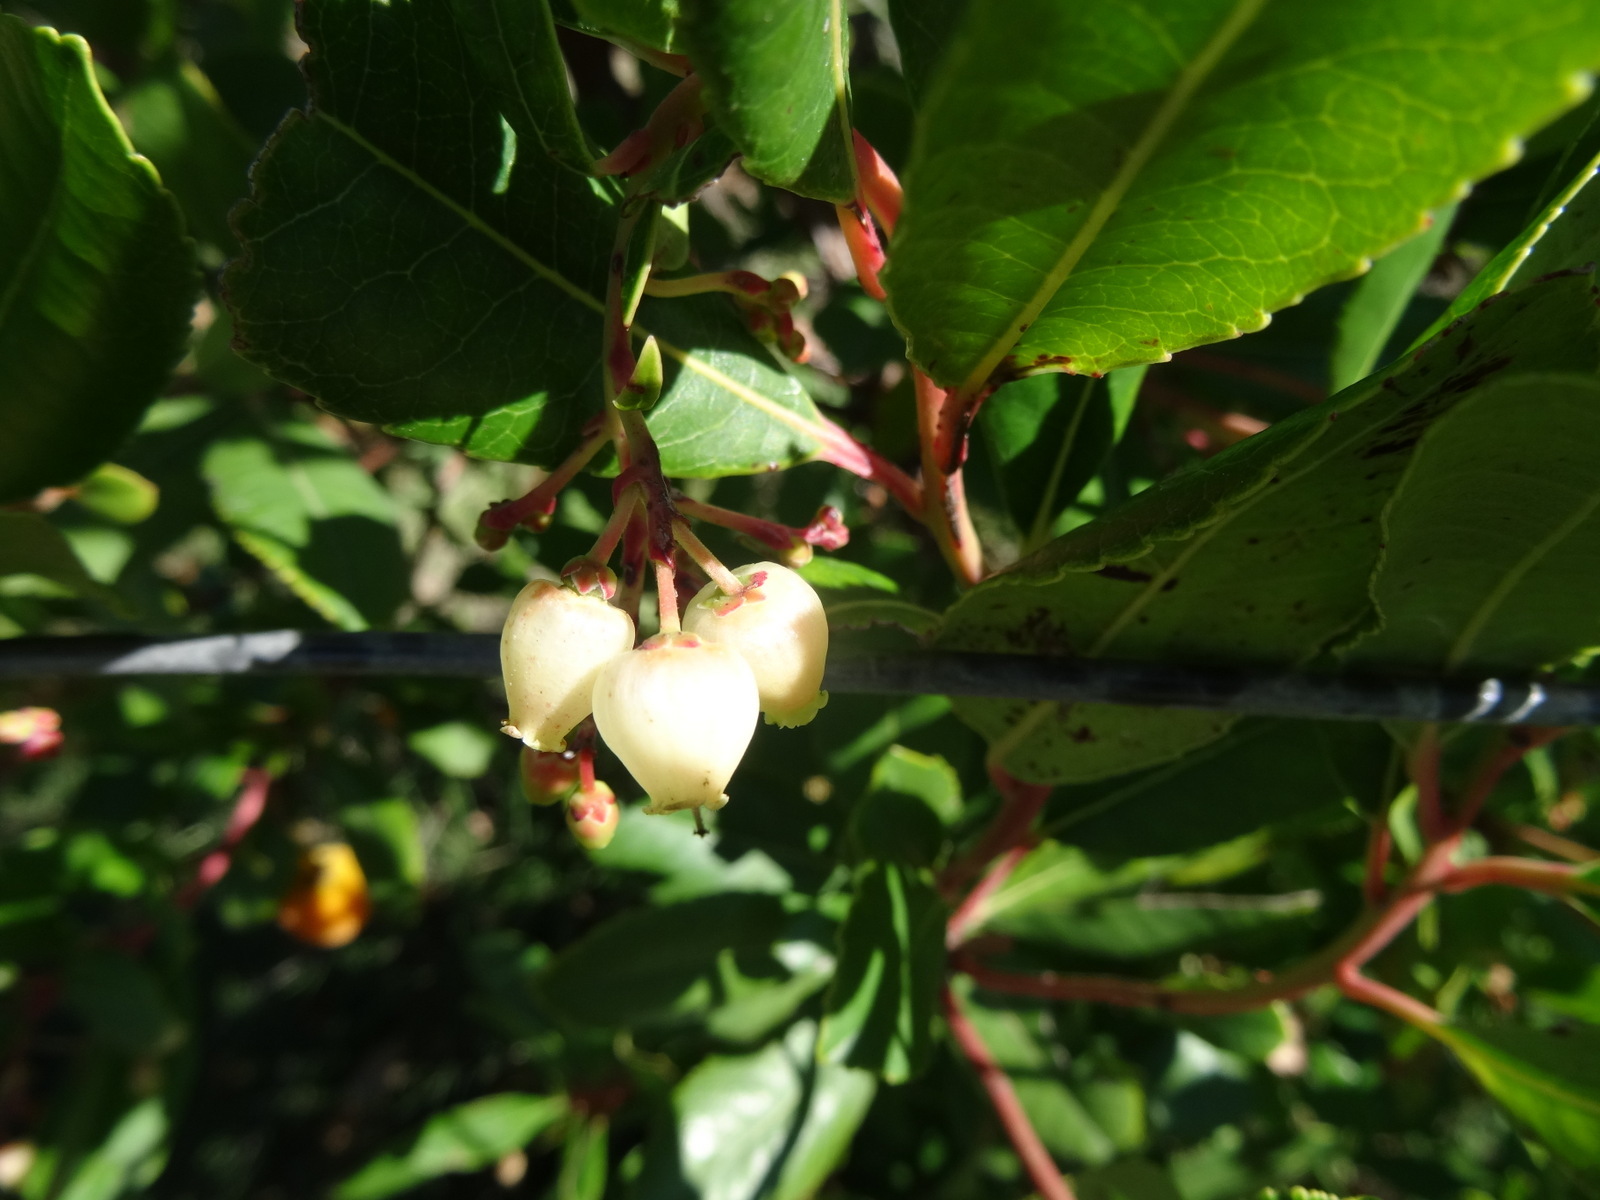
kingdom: Plantae
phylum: Tracheophyta
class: Magnoliopsida
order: Ericales
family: Ericaceae
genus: Arbutus
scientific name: Arbutus unedo
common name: Strawberry-tree
